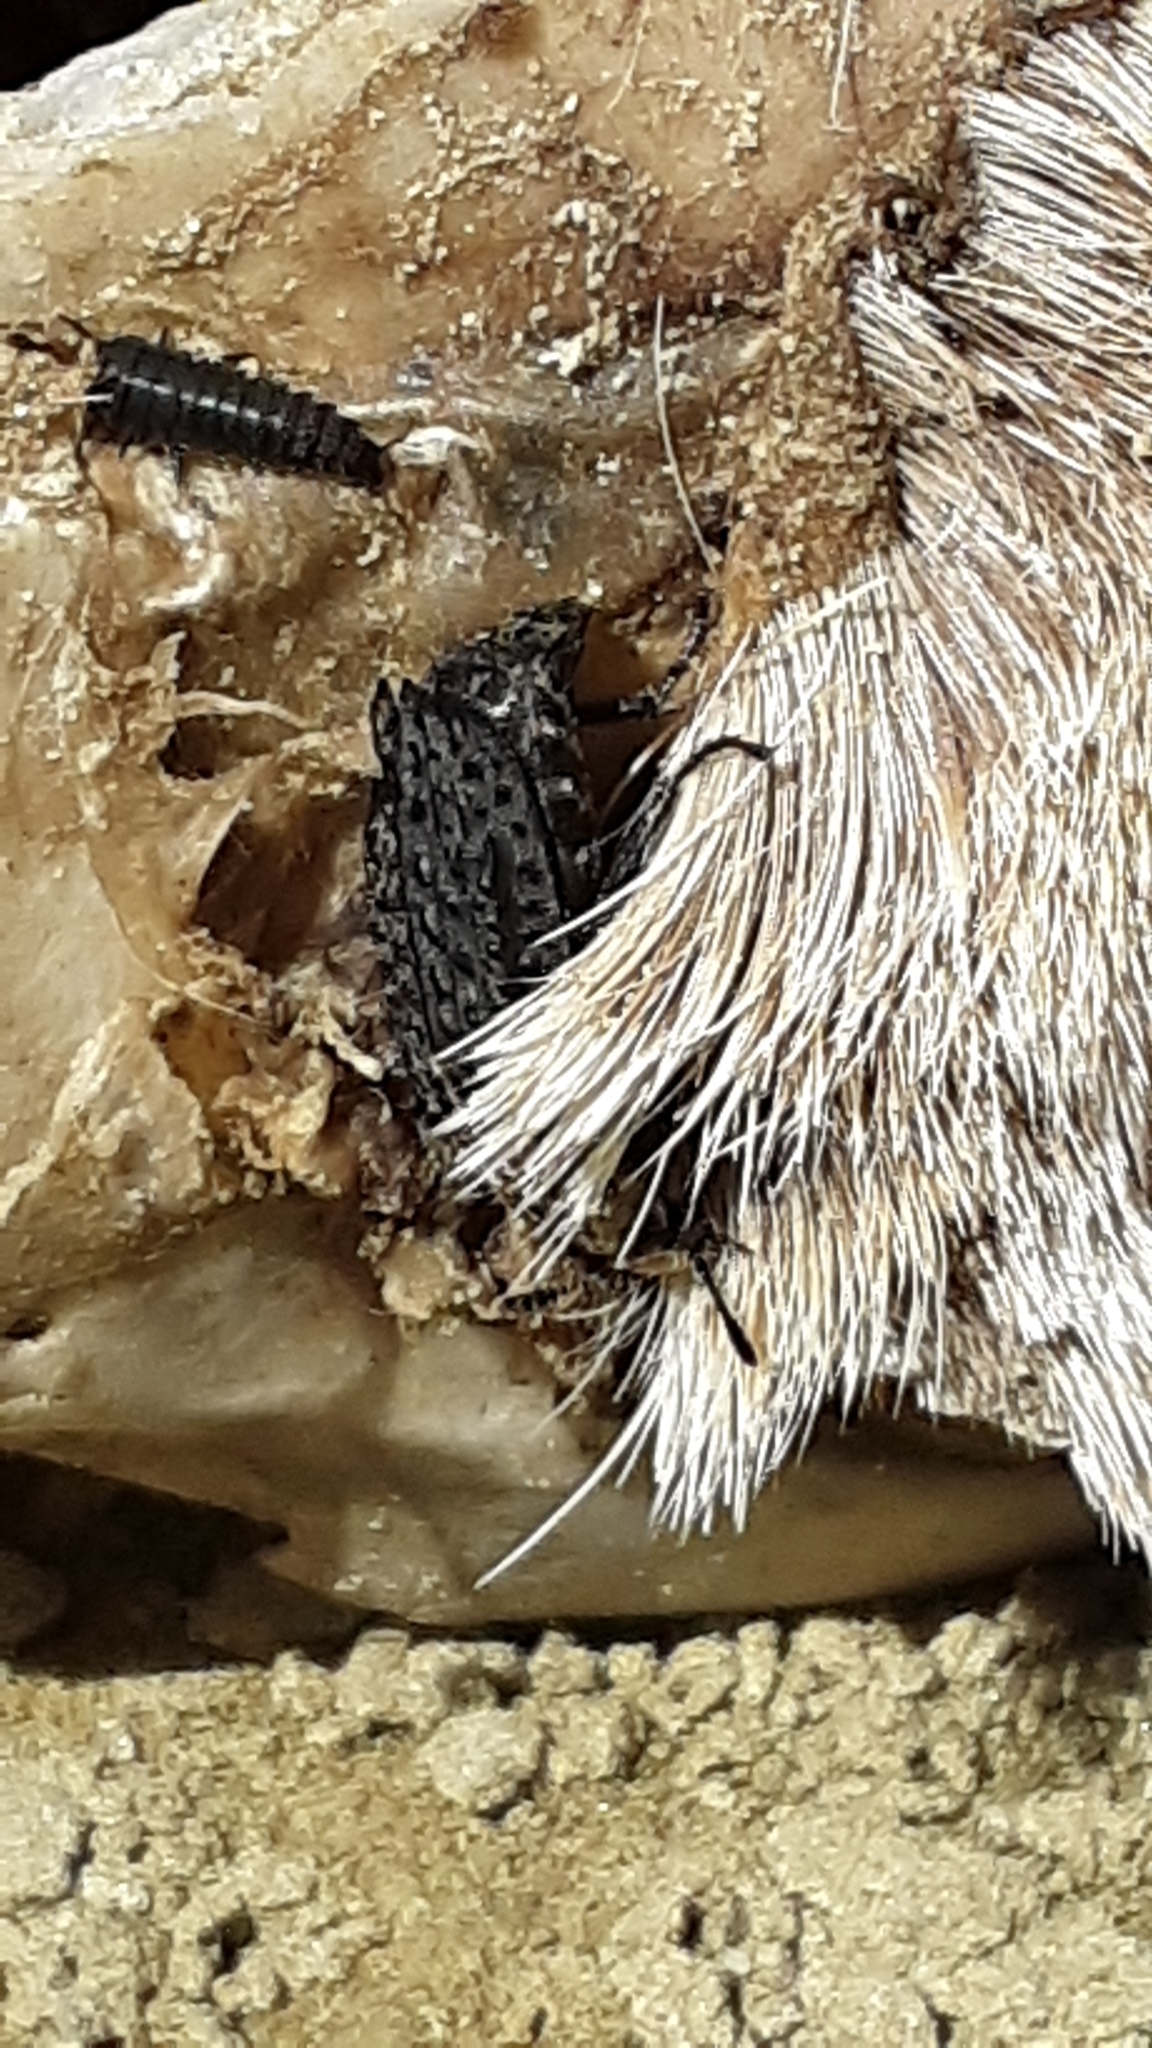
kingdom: Animalia
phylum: Arthropoda
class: Insecta
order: Coleoptera
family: Staphylinidae
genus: Thanatophilus
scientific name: Thanatophilus lapponicus
